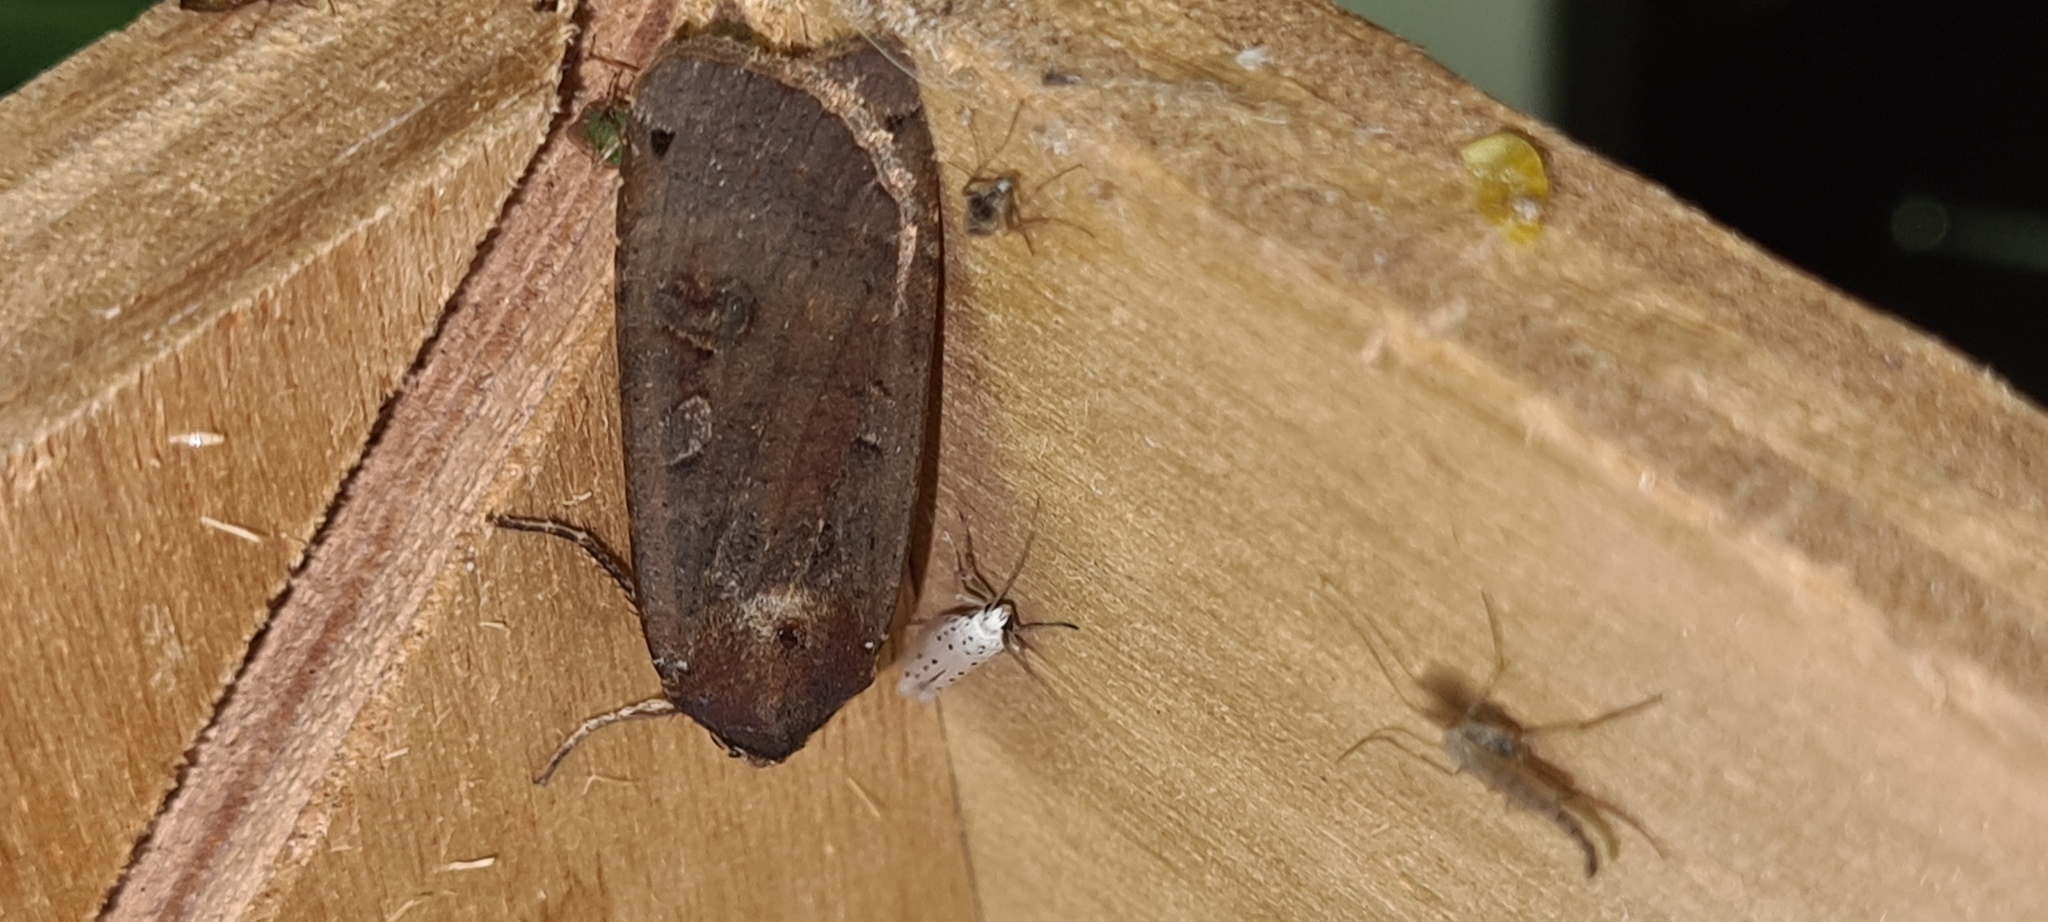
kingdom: Animalia
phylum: Arthropoda
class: Insecta
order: Lepidoptera
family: Noctuidae
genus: Noctua
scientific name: Noctua pronuba
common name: Large yellow underwing
